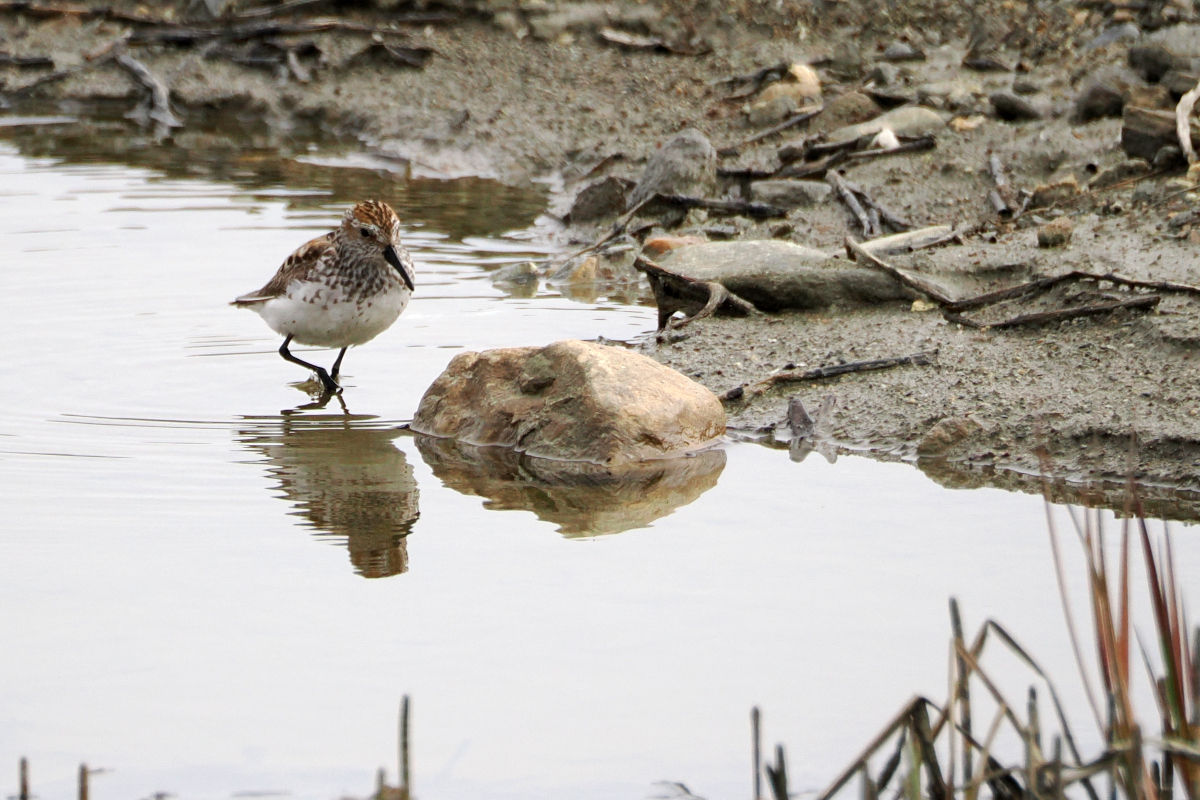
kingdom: Animalia
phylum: Chordata
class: Aves
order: Charadriiformes
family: Scolopacidae
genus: Calidris
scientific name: Calidris mauri
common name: Western sandpiper
